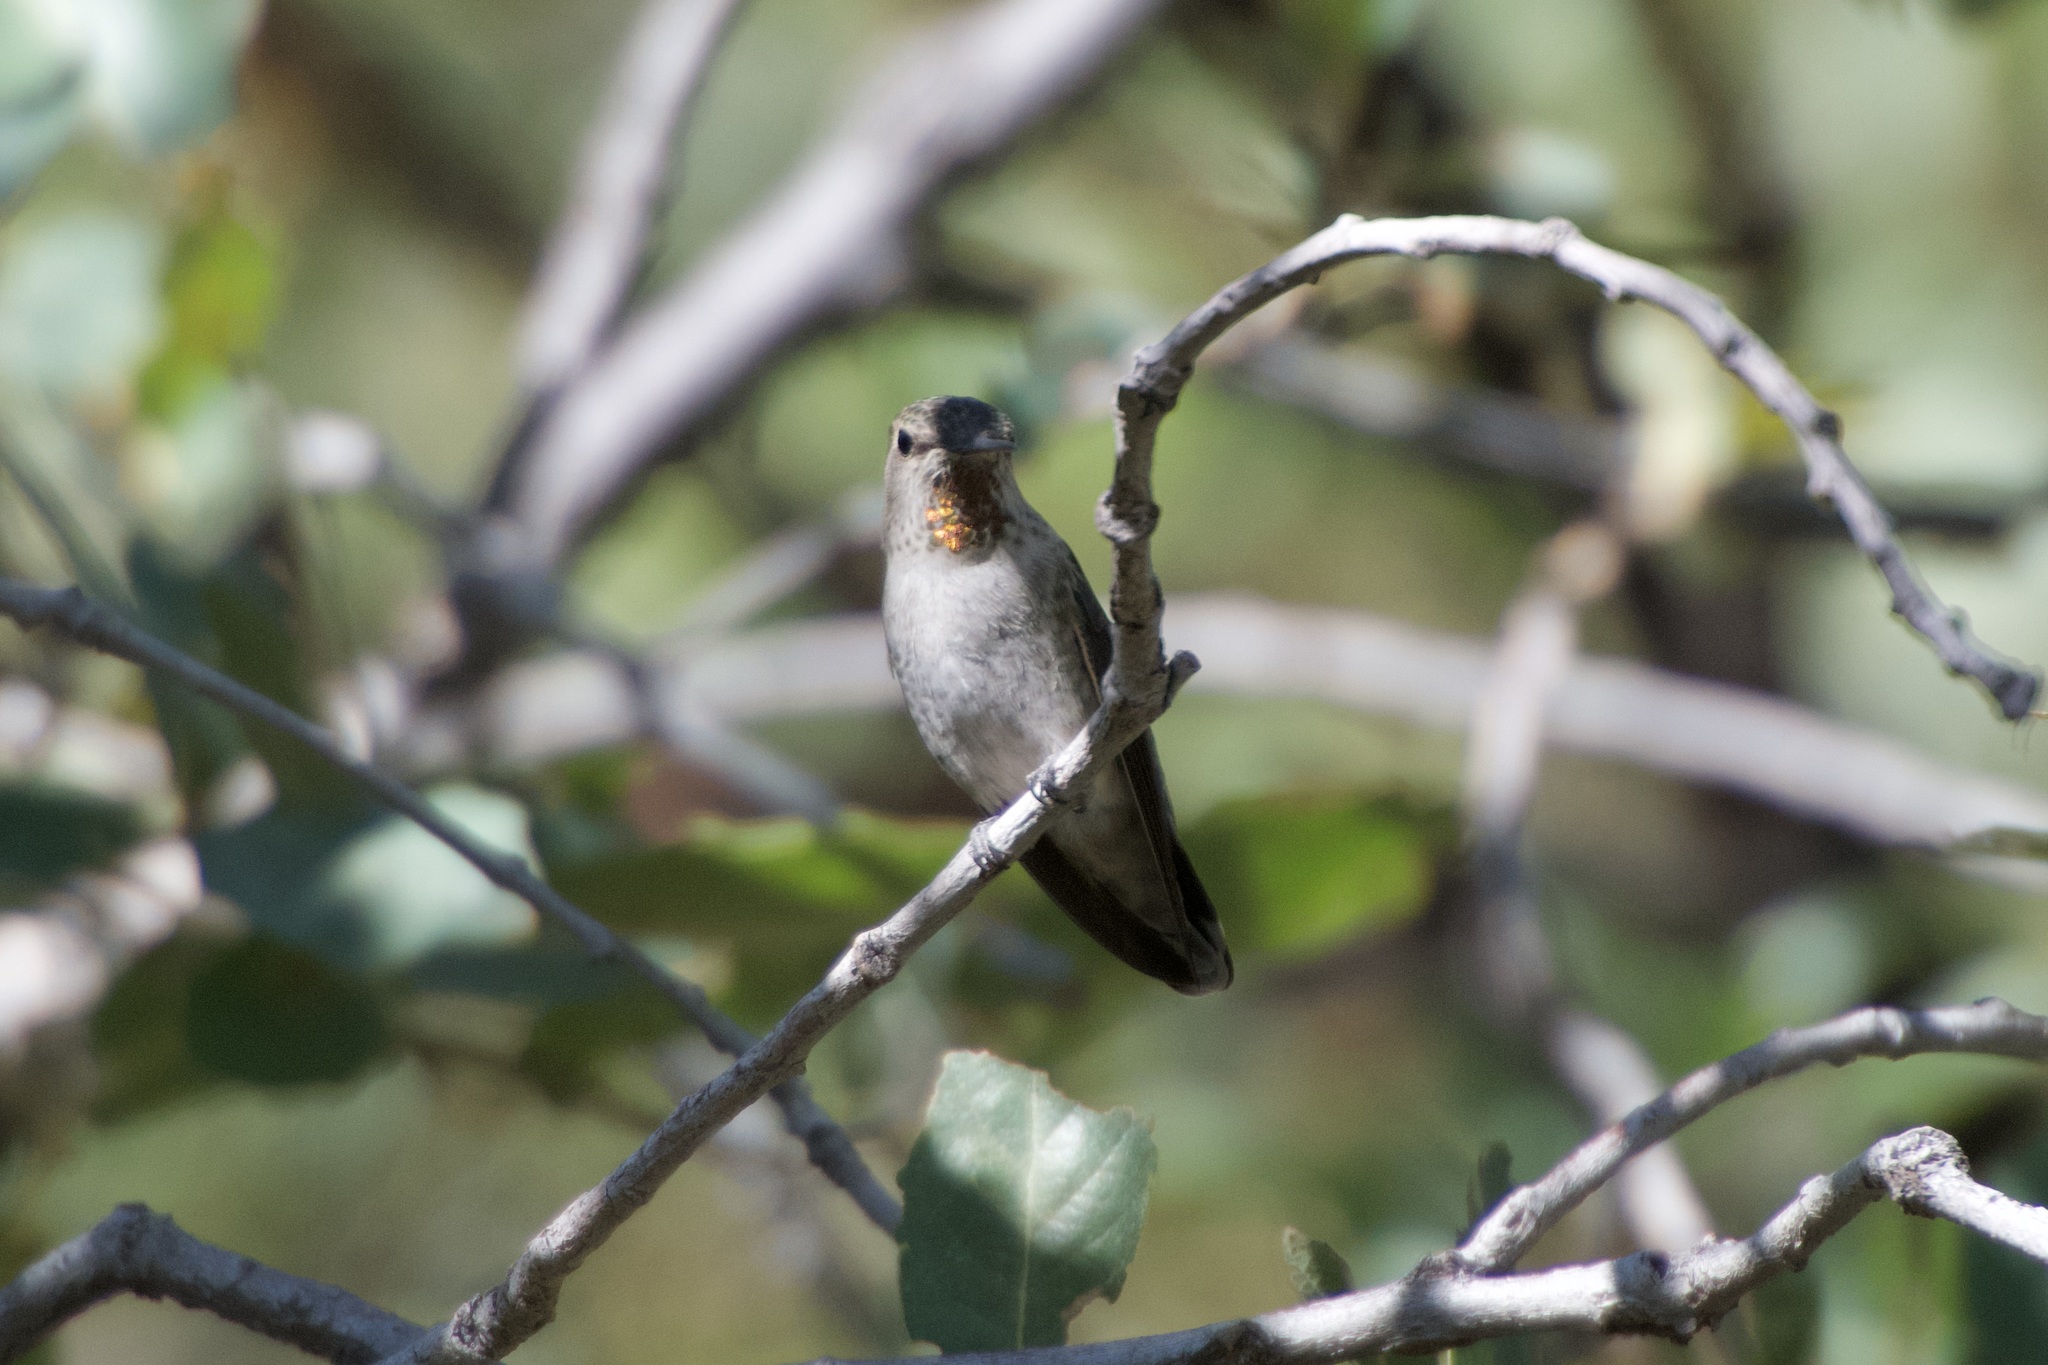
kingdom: Animalia
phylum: Chordata
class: Aves
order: Apodiformes
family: Trochilidae
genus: Calypte
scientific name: Calypte anna
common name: Anna's hummingbird
